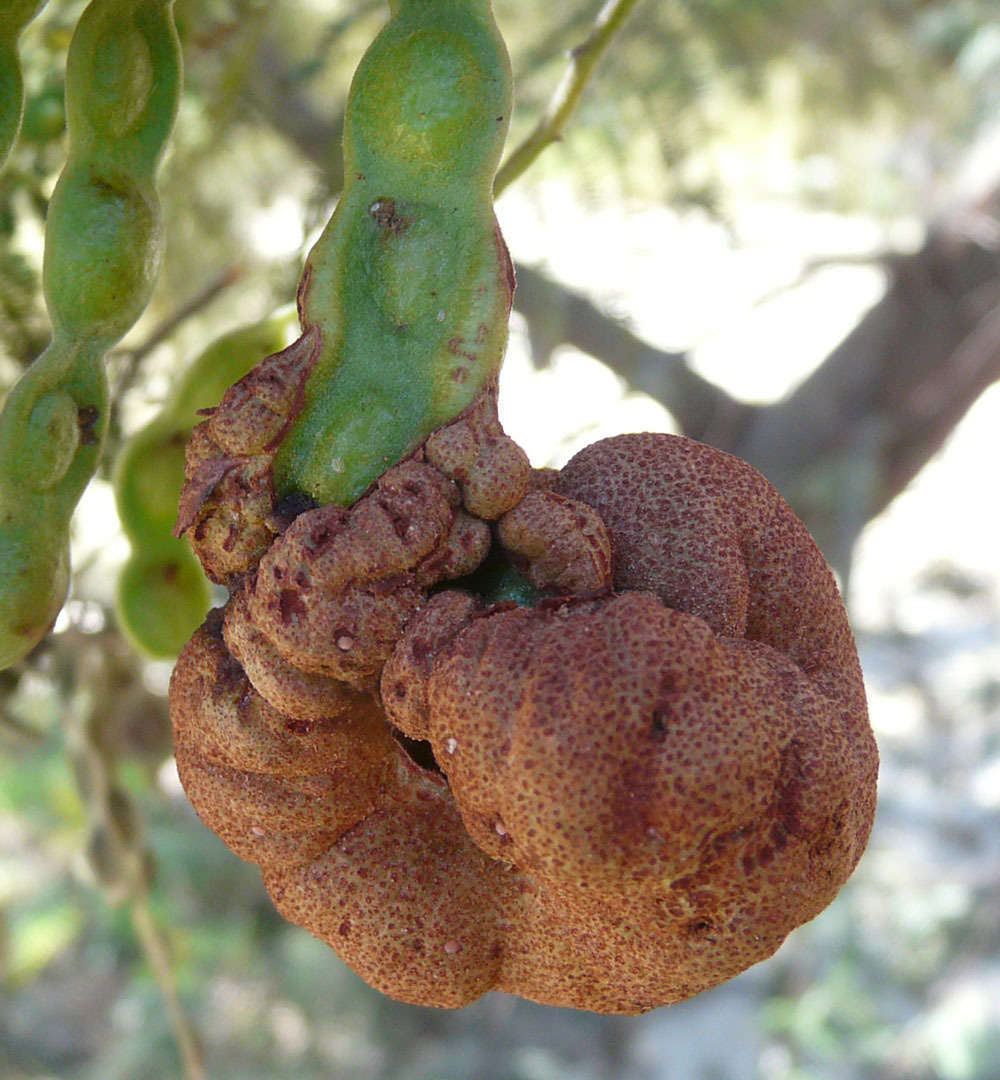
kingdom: Fungi
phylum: Basidiomycota
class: Pucciniomycetes
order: Pucciniales
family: Uromycladiaceae
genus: Uromycladium
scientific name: Uromycladium murphyi
